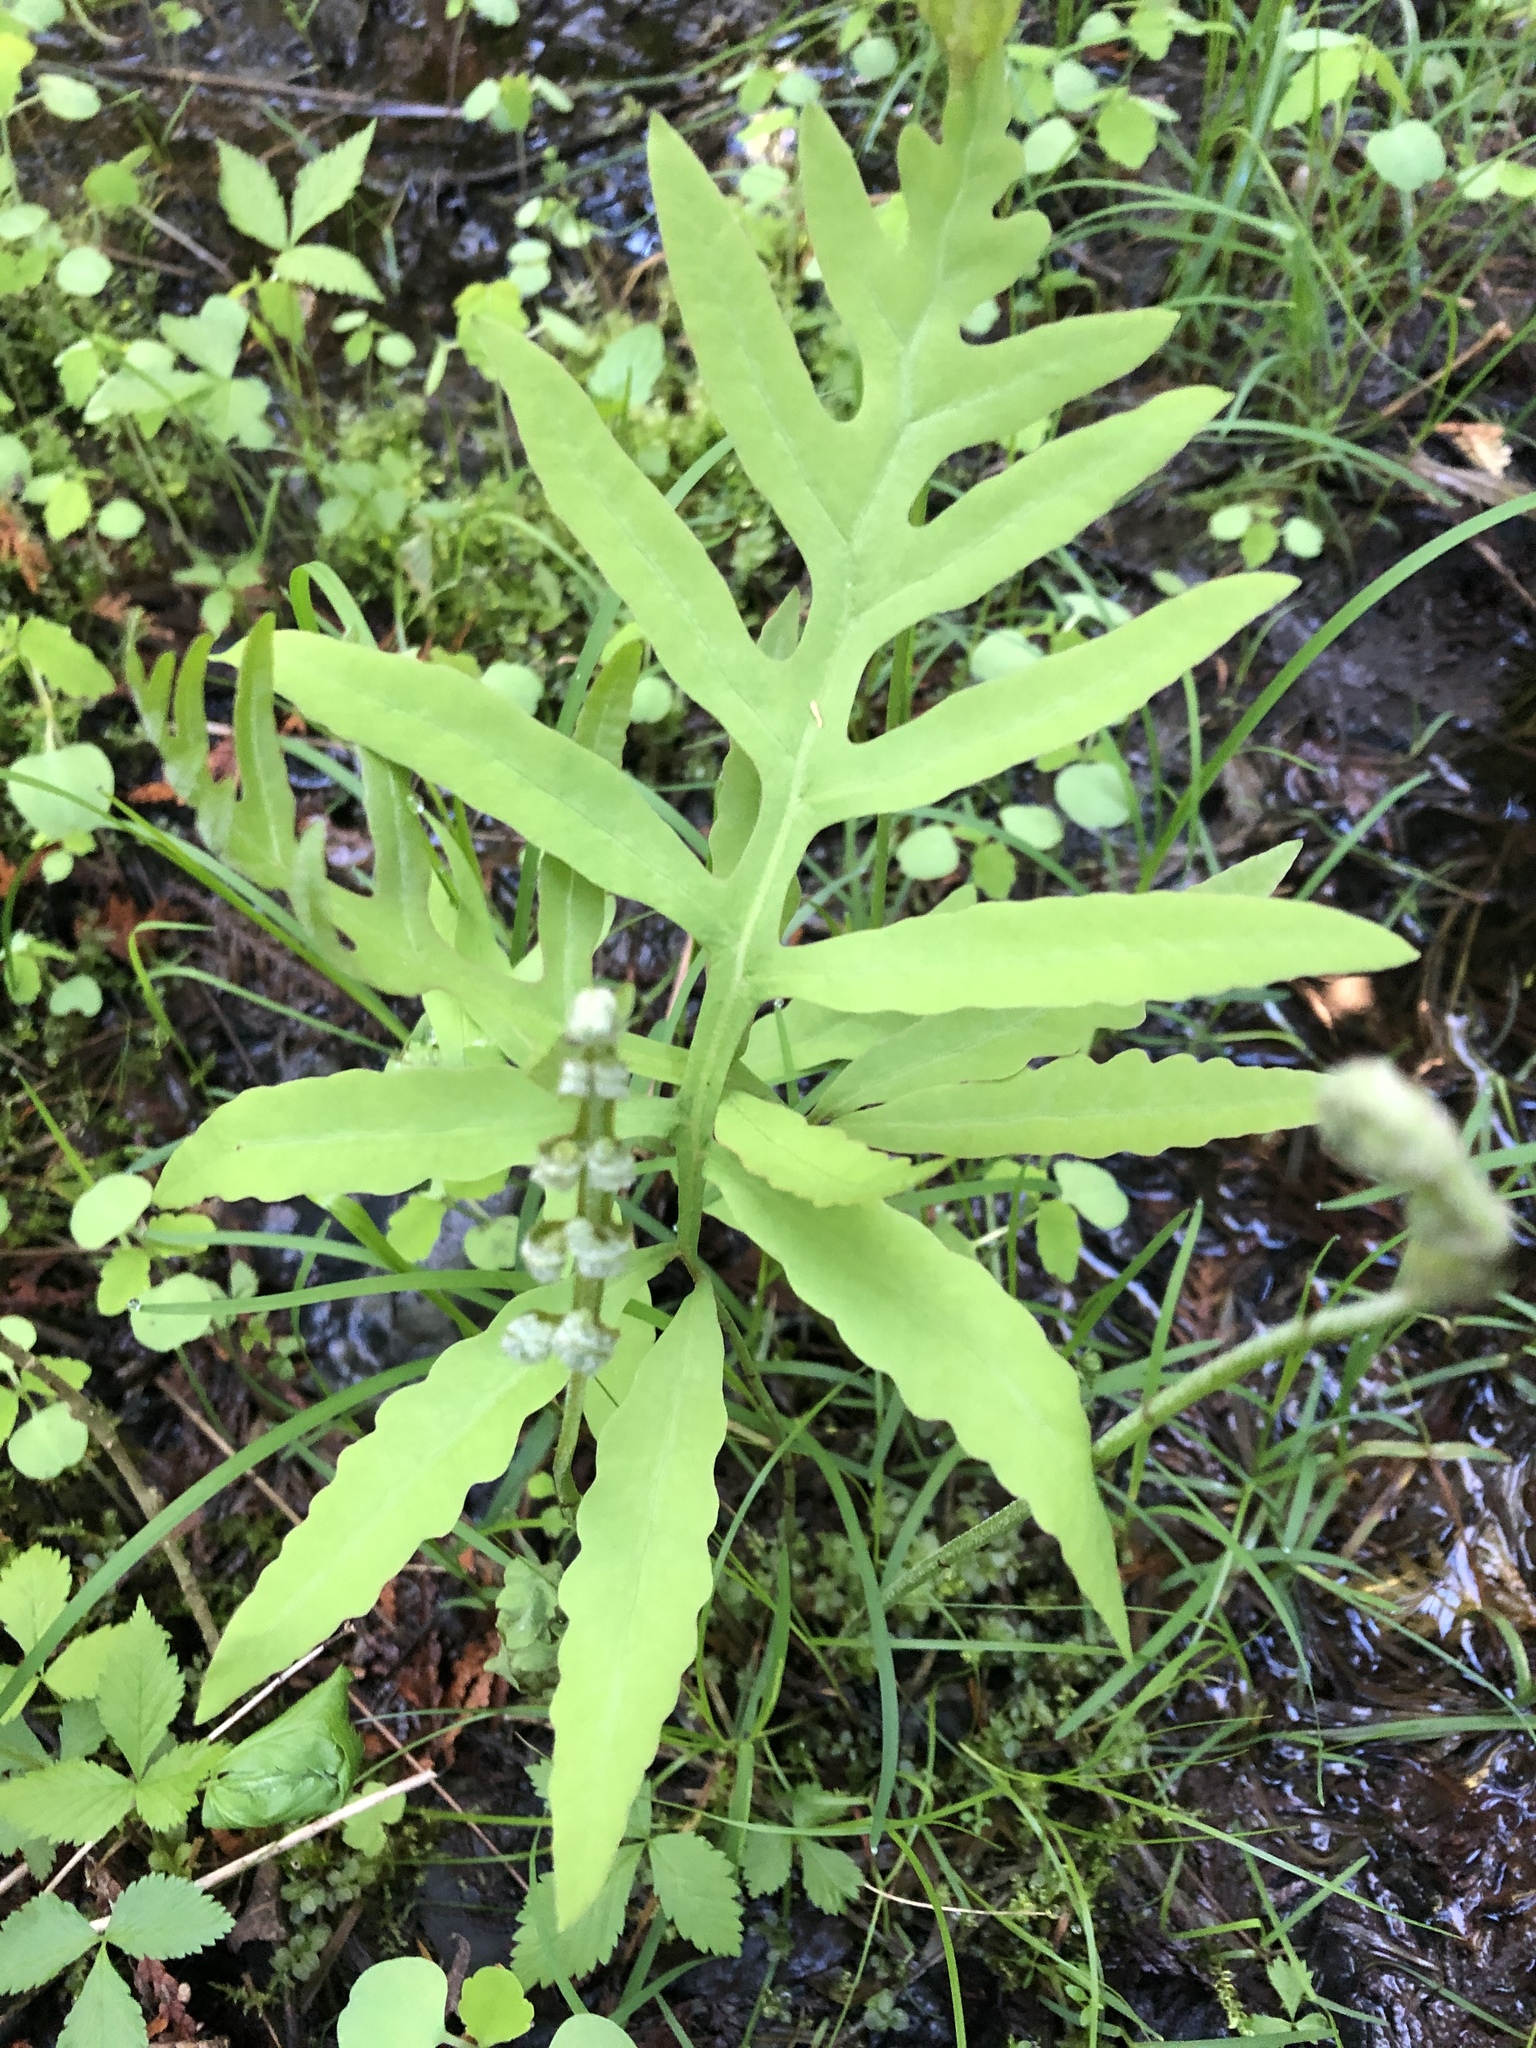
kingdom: Plantae
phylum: Tracheophyta
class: Polypodiopsida
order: Polypodiales
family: Onocleaceae
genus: Onoclea
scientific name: Onoclea sensibilis
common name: Sensitive fern
